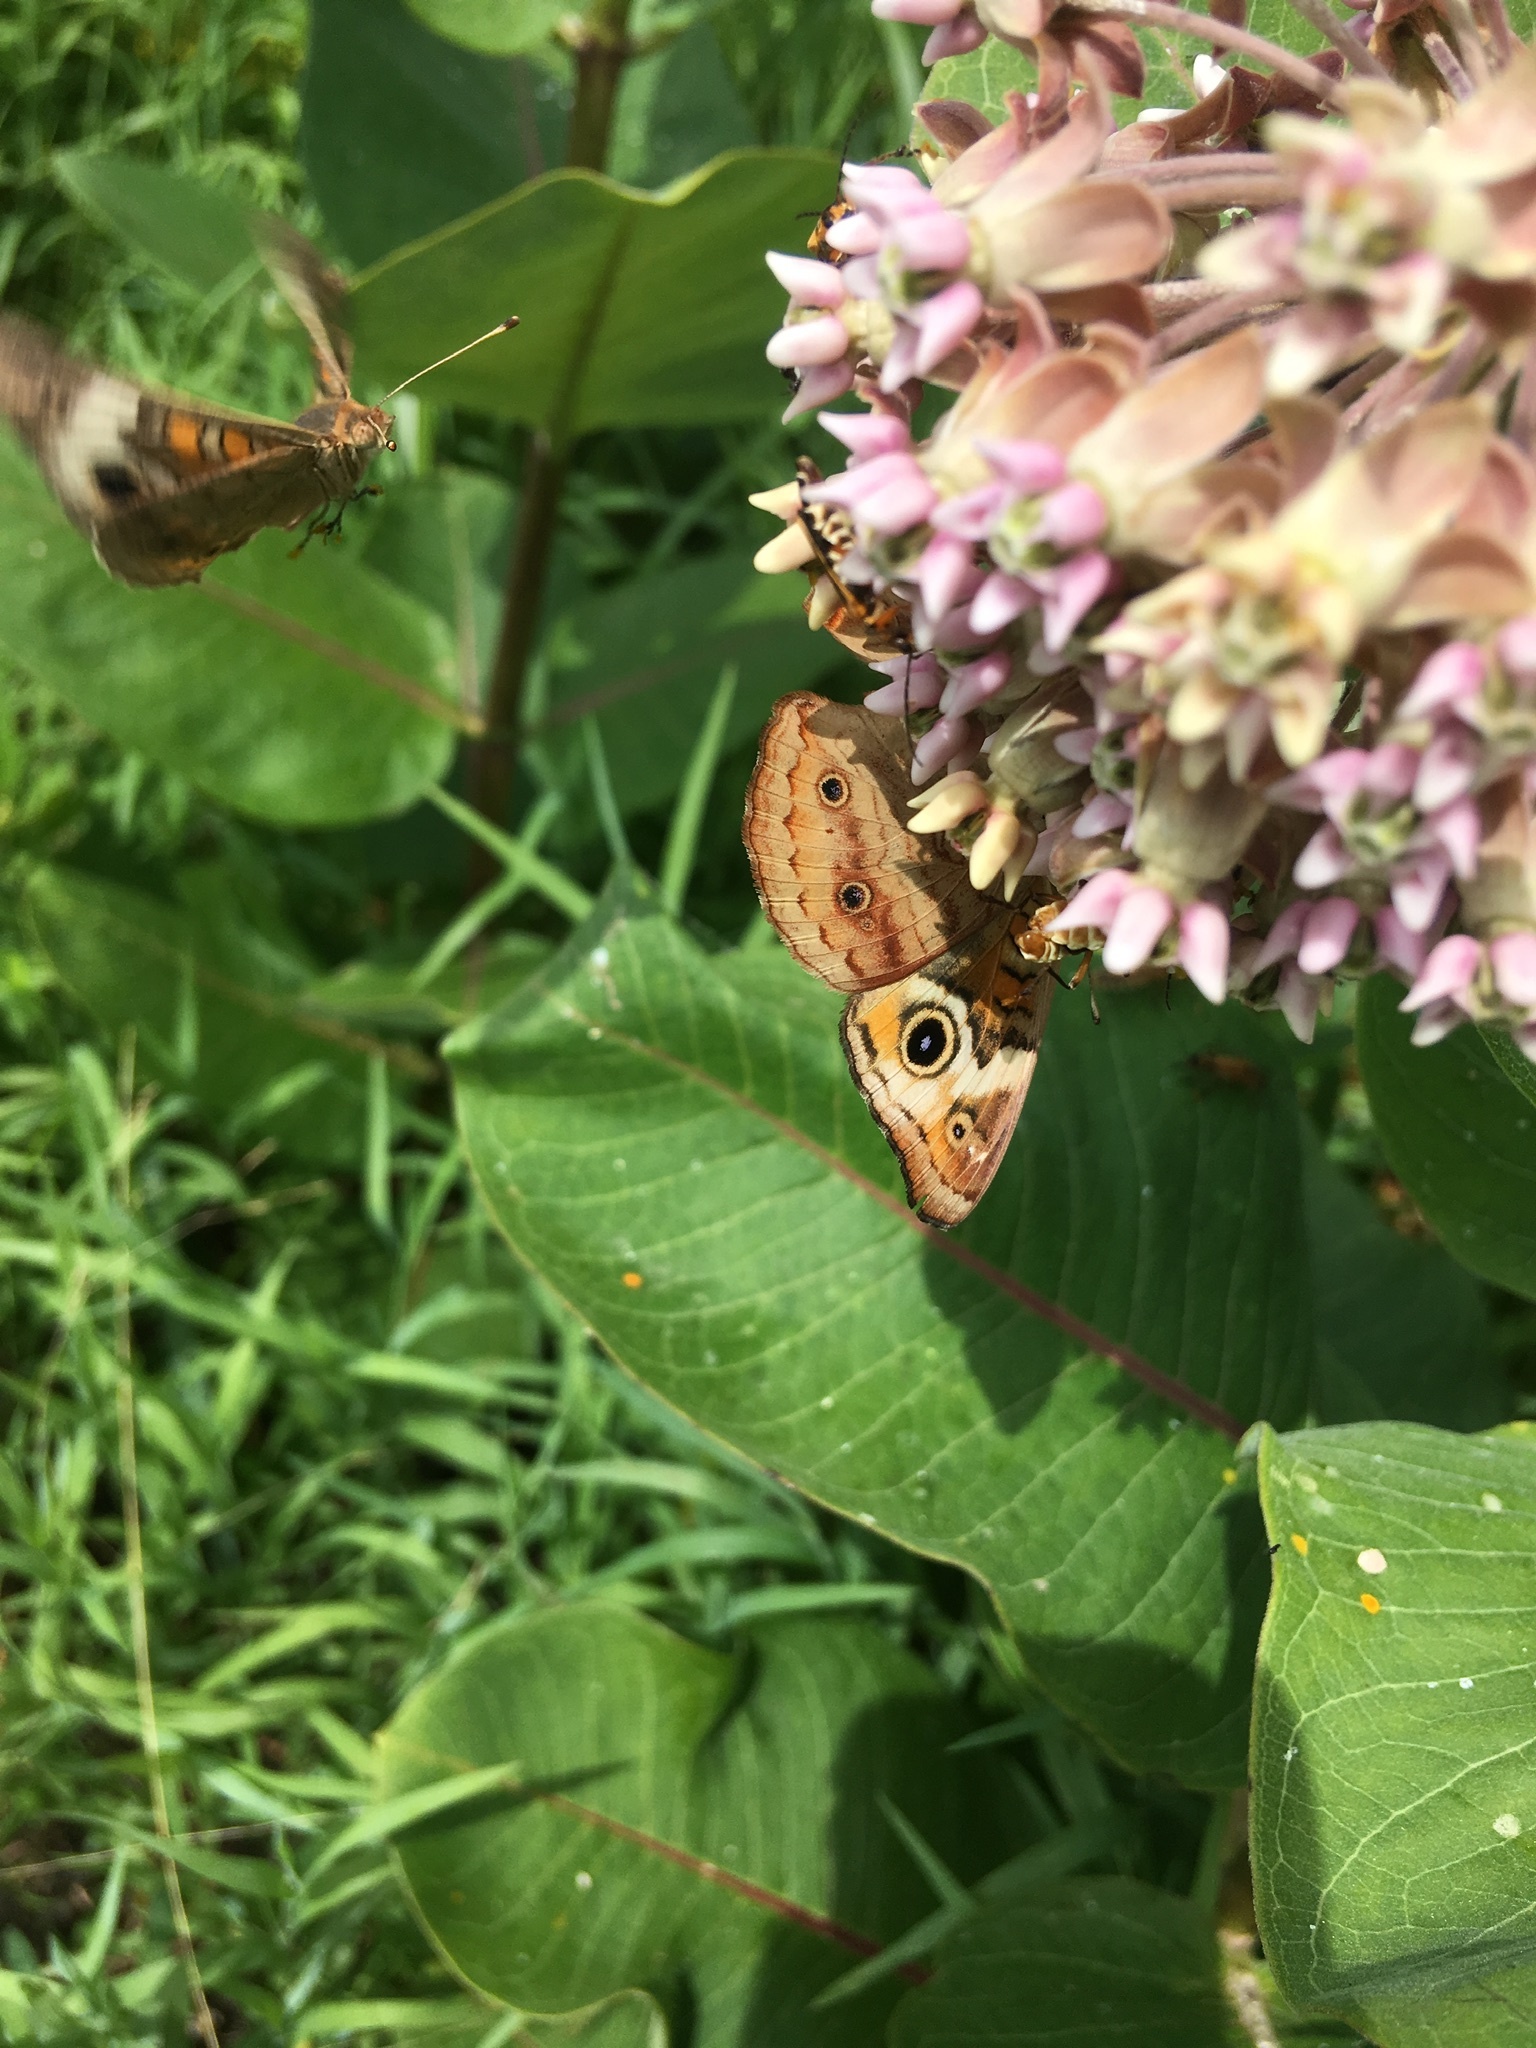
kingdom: Animalia
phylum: Arthropoda
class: Insecta
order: Lepidoptera
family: Nymphalidae
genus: Junonia
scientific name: Junonia coenia
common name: Common buckeye
